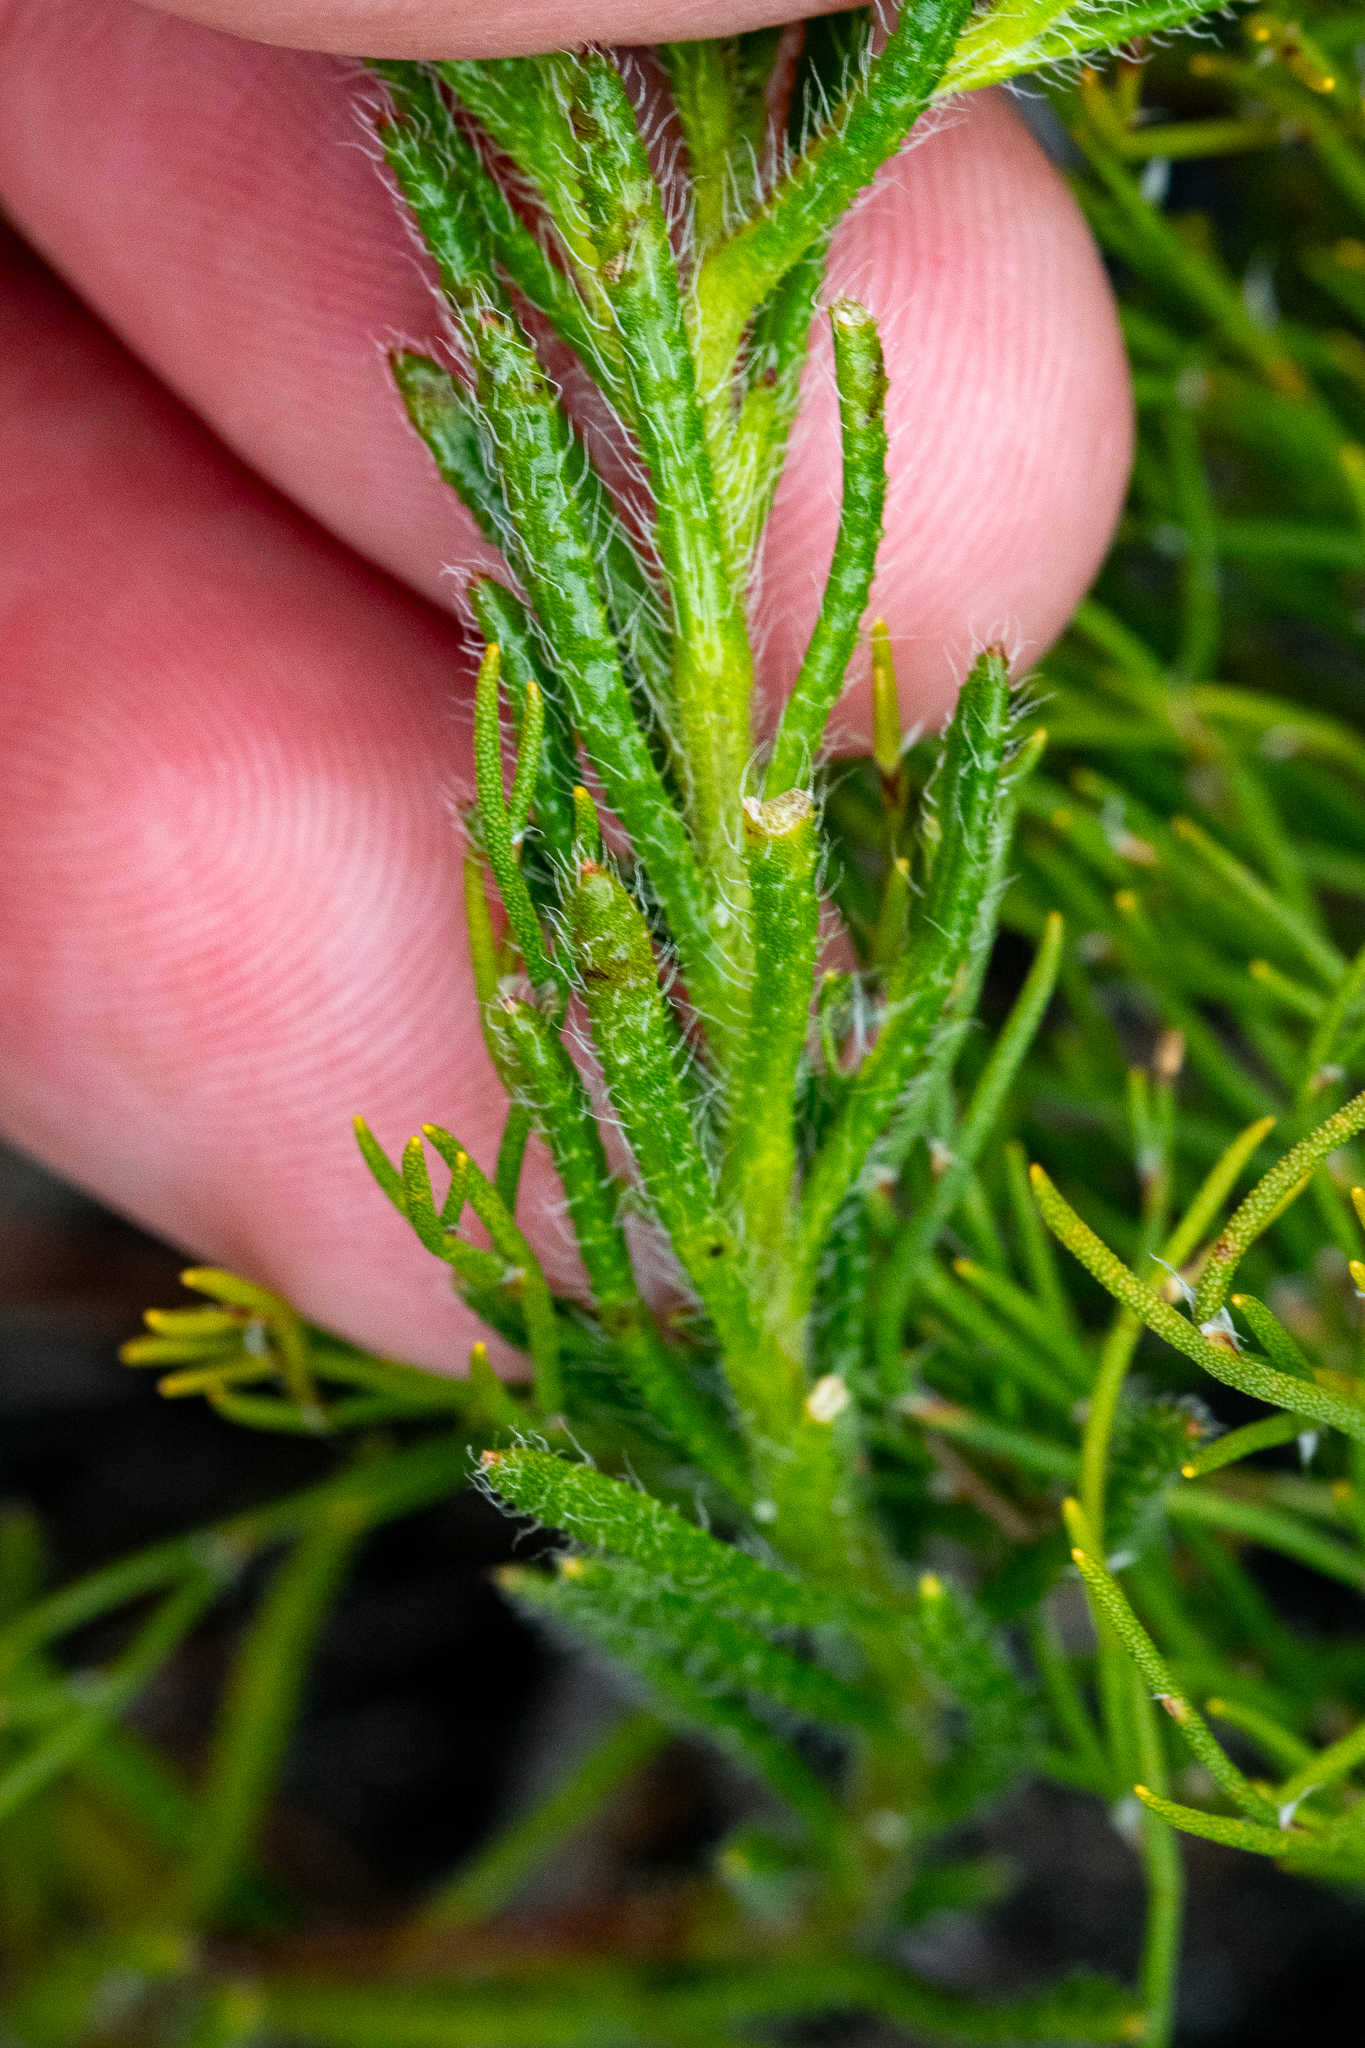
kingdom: Plantae
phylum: Tracheophyta
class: Magnoliopsida
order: Asterales
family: Asteraceae
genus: Zyrphelis
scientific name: Zyrphelis foliosa
